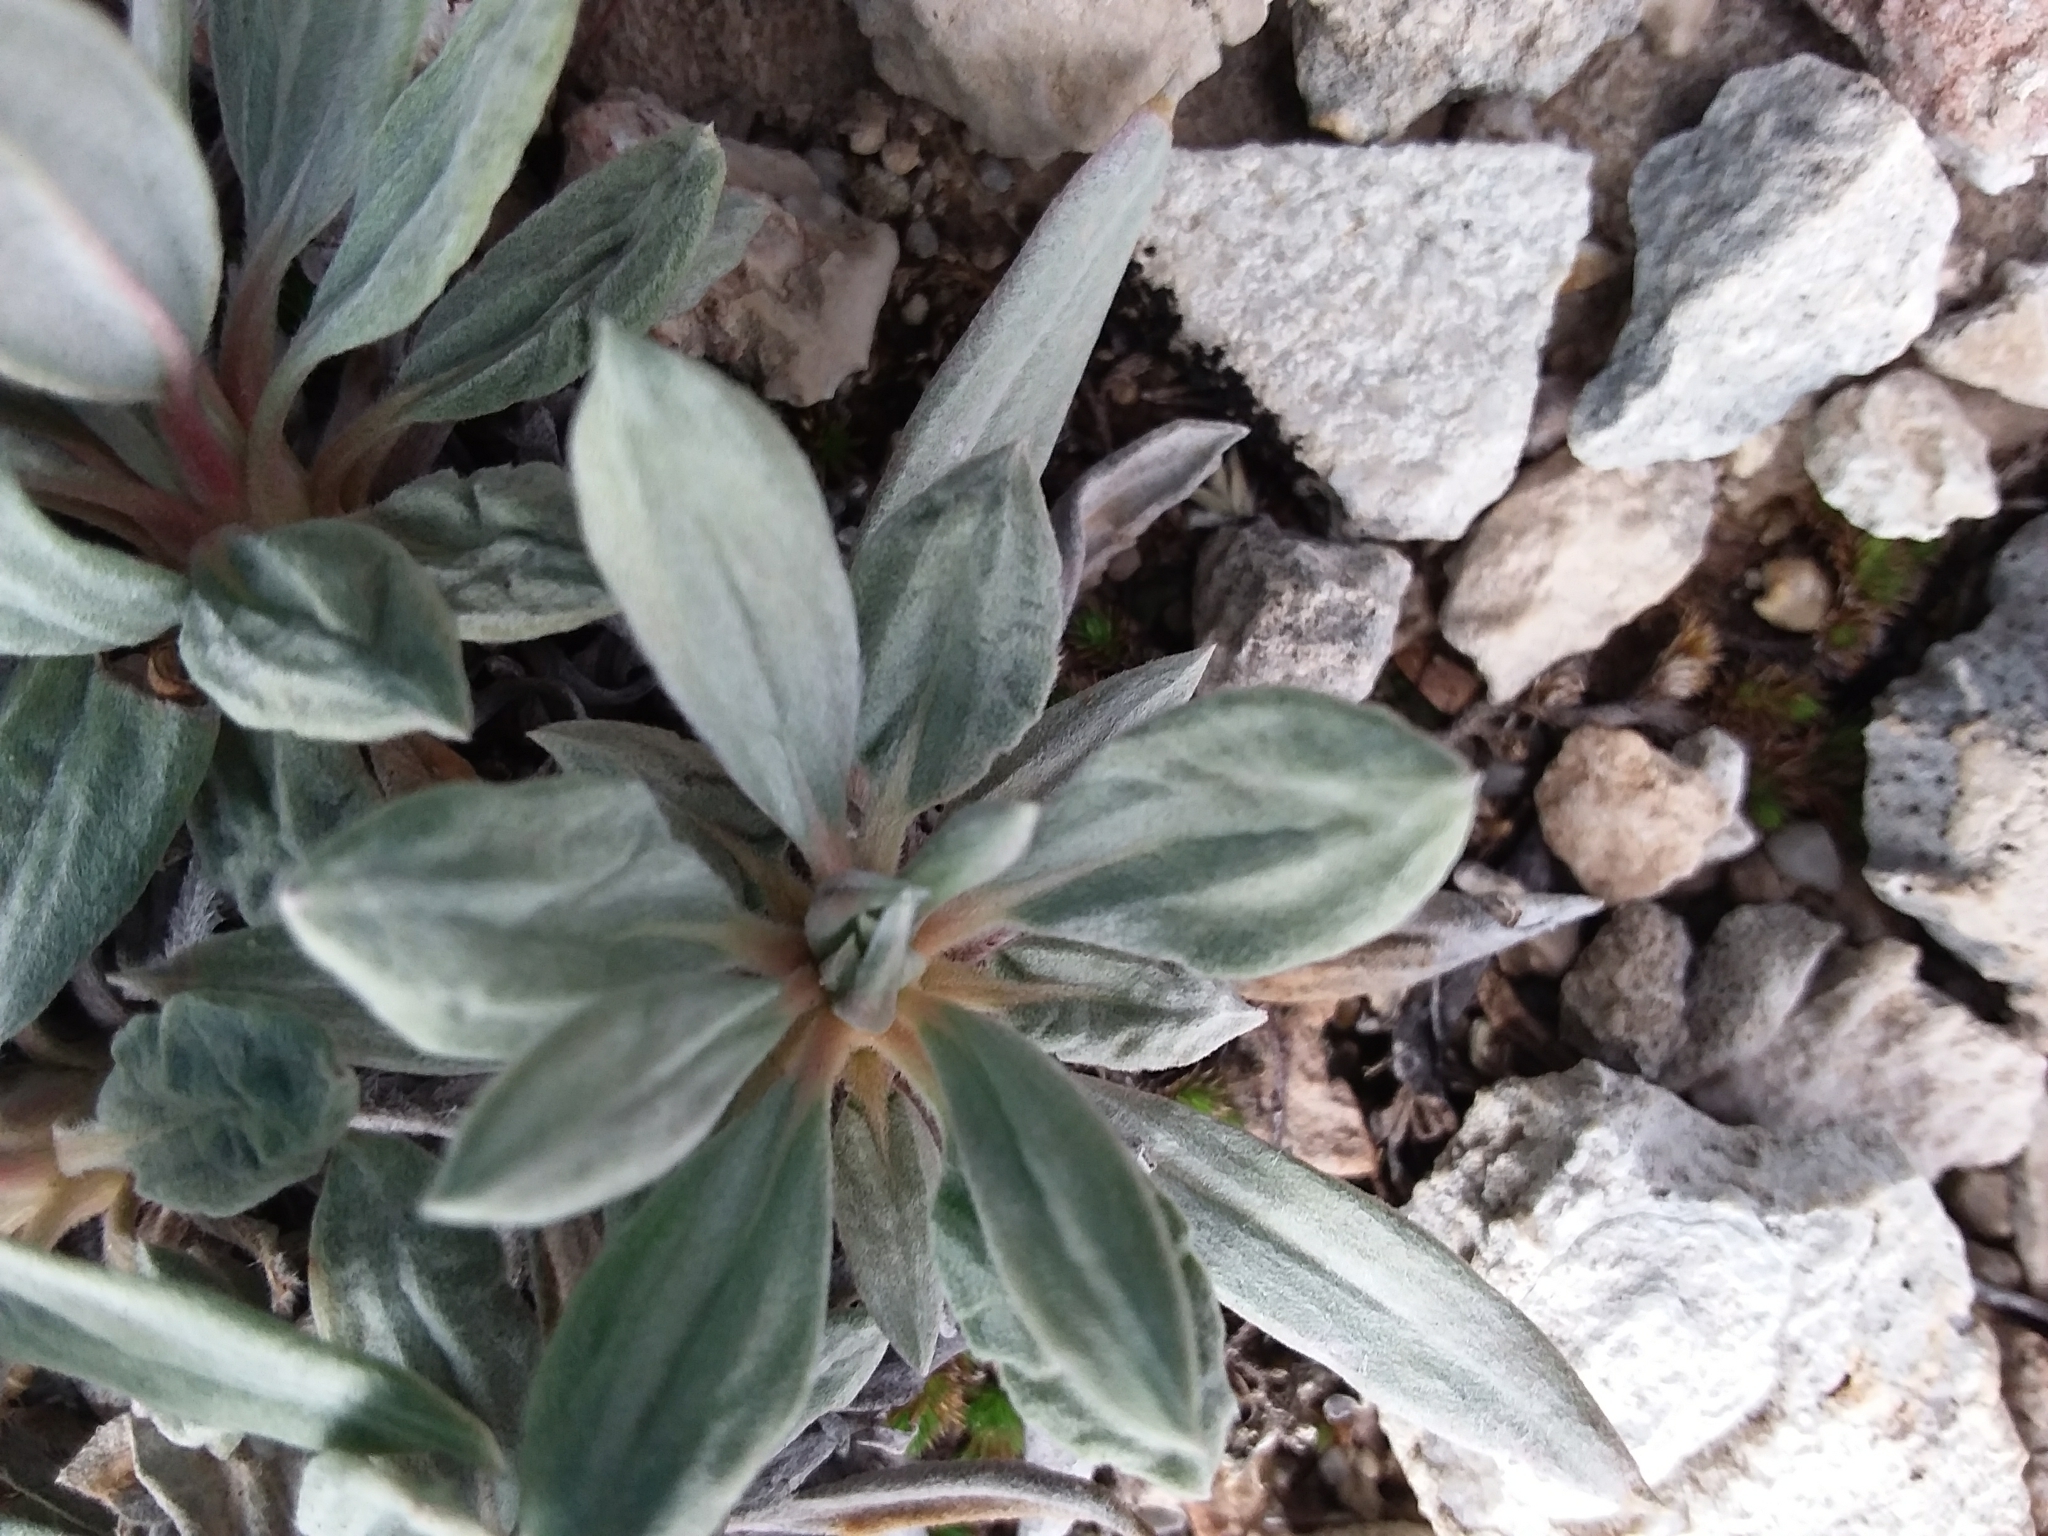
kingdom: Plantae
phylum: Tracheophyta
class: Magnoliopsida
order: Caryophyllales
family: Polygonaceae
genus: Eriogonum
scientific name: Eriogonum havardii
